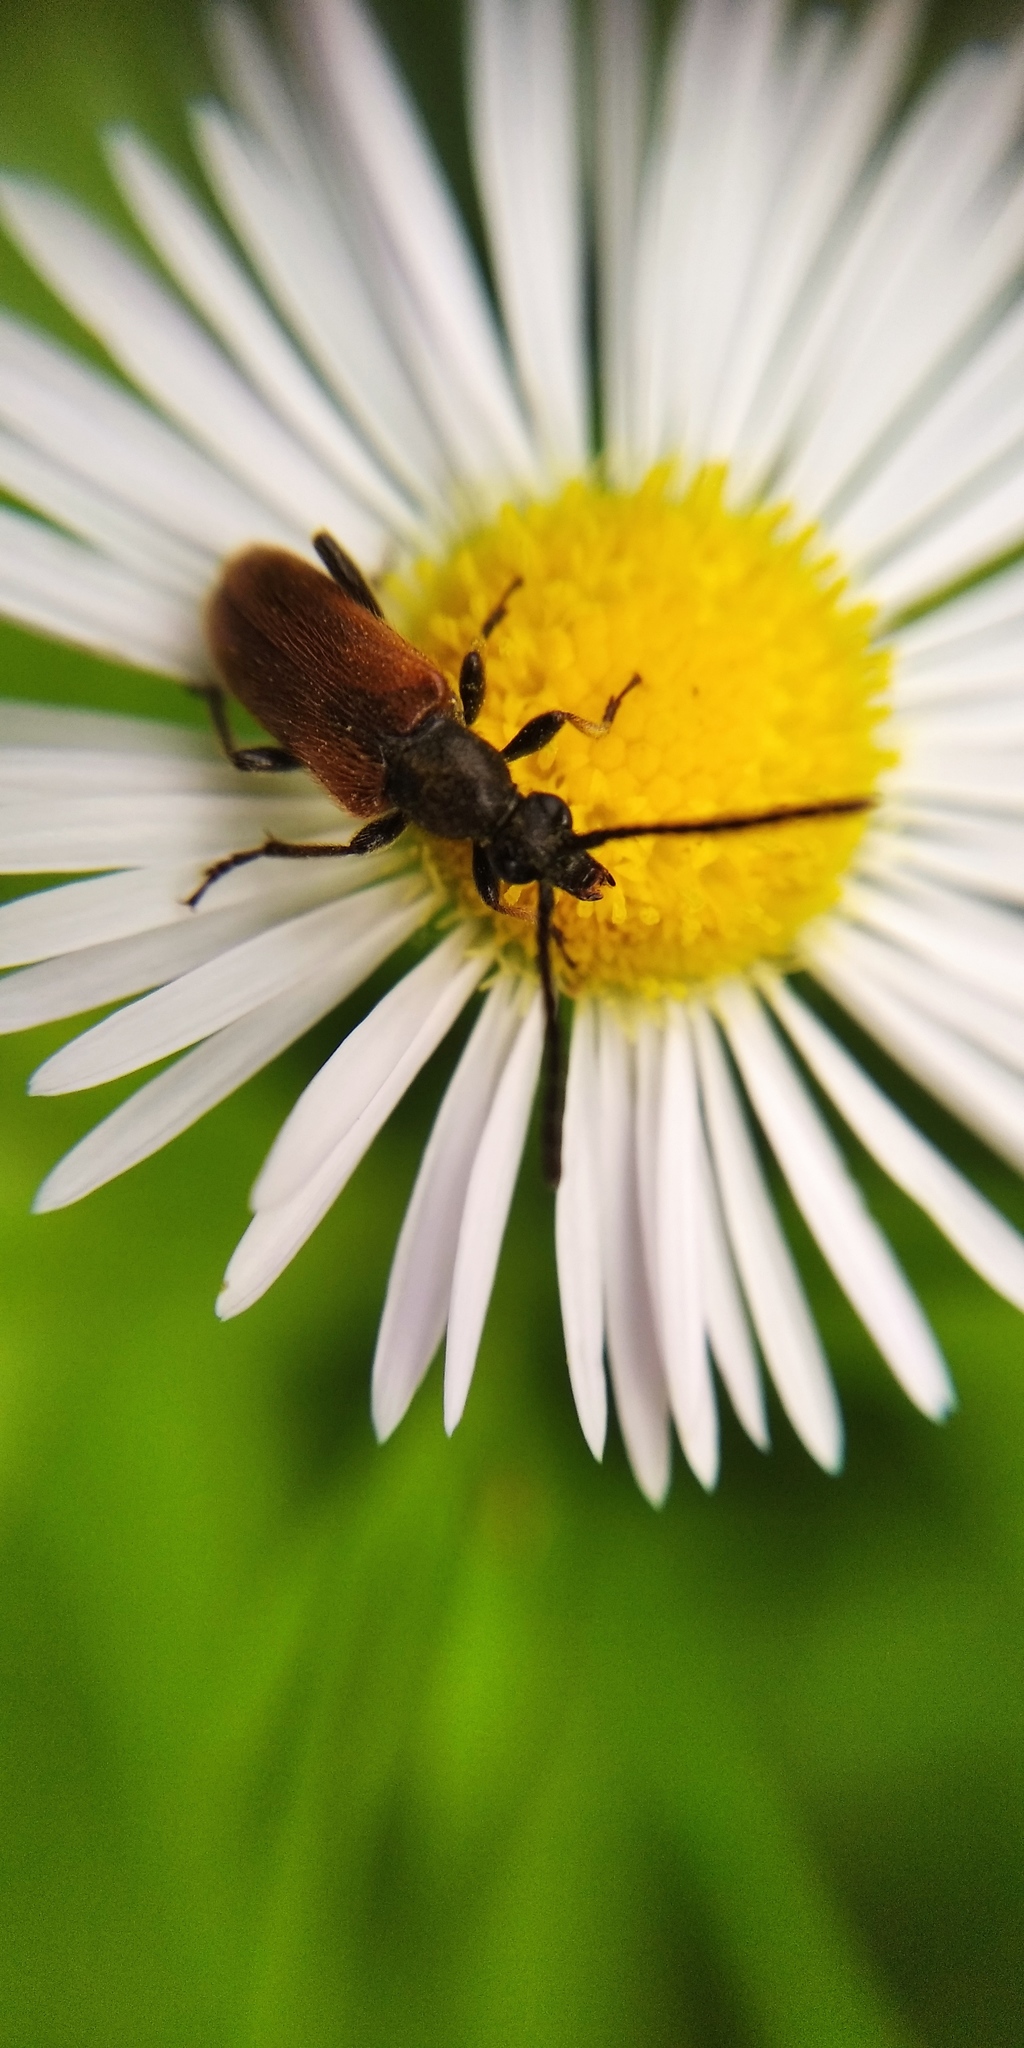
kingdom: Animalia
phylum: Arthropoda
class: Insecta
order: Coleoptera
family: Cerambycidae
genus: Pseudovadonia
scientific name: Pseudovadonia livida
